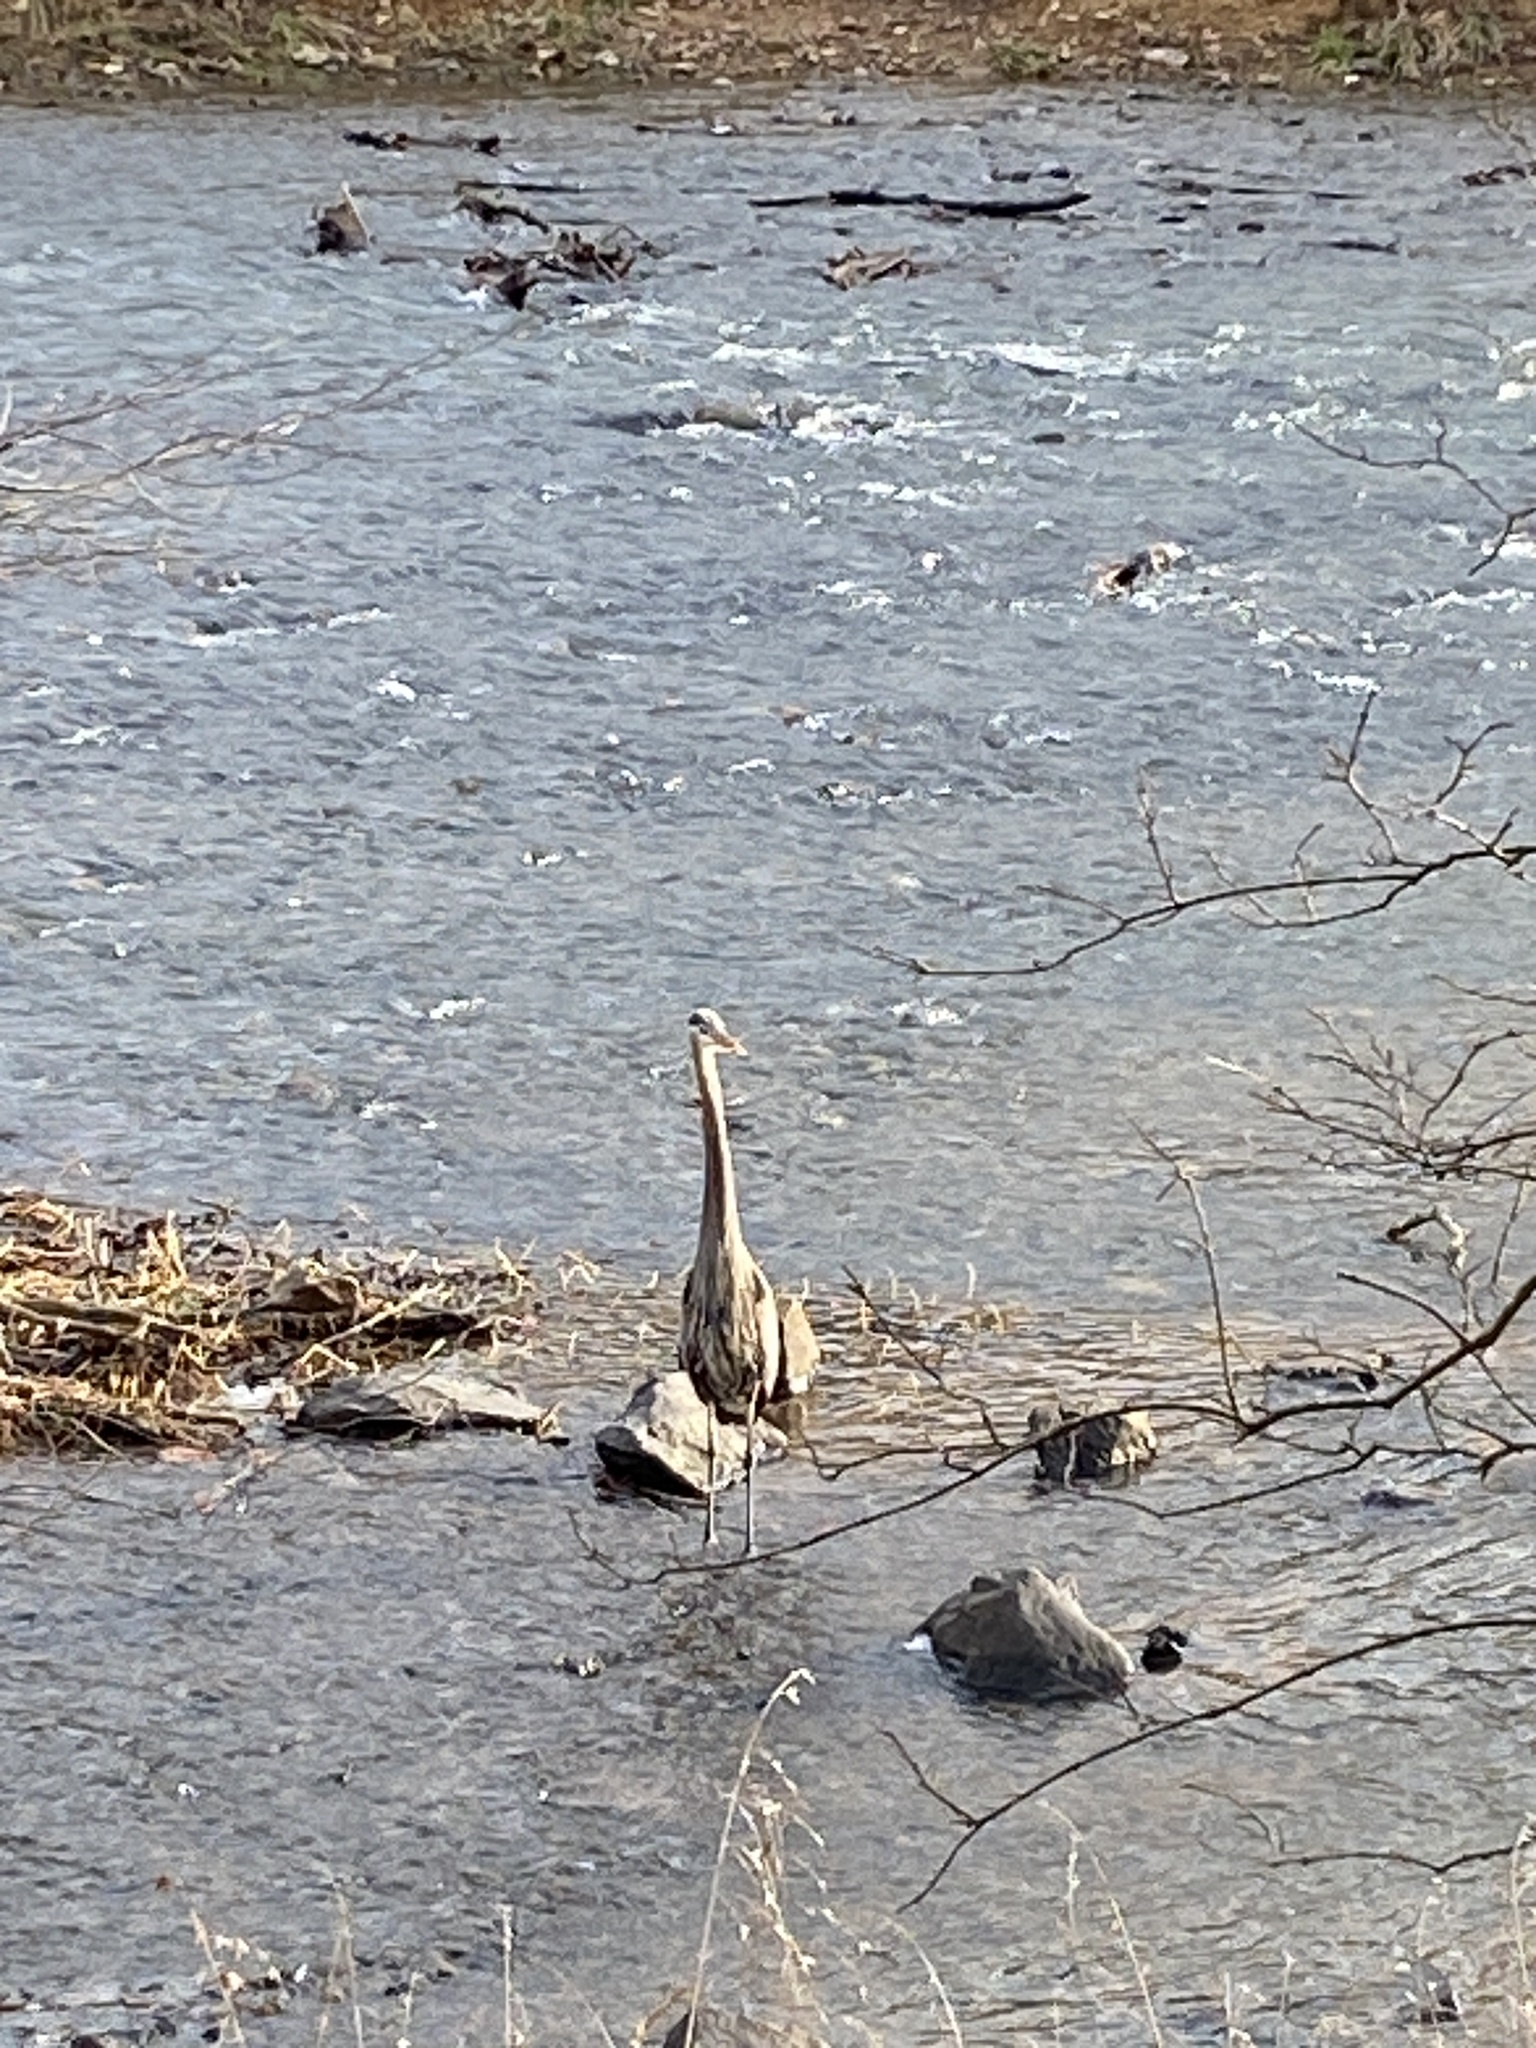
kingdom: Animalia
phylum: Chordata
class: Aves
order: Pelecaniformes
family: Ardeidae
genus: Ardea
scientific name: Ardea herodias
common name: Great blue heron
